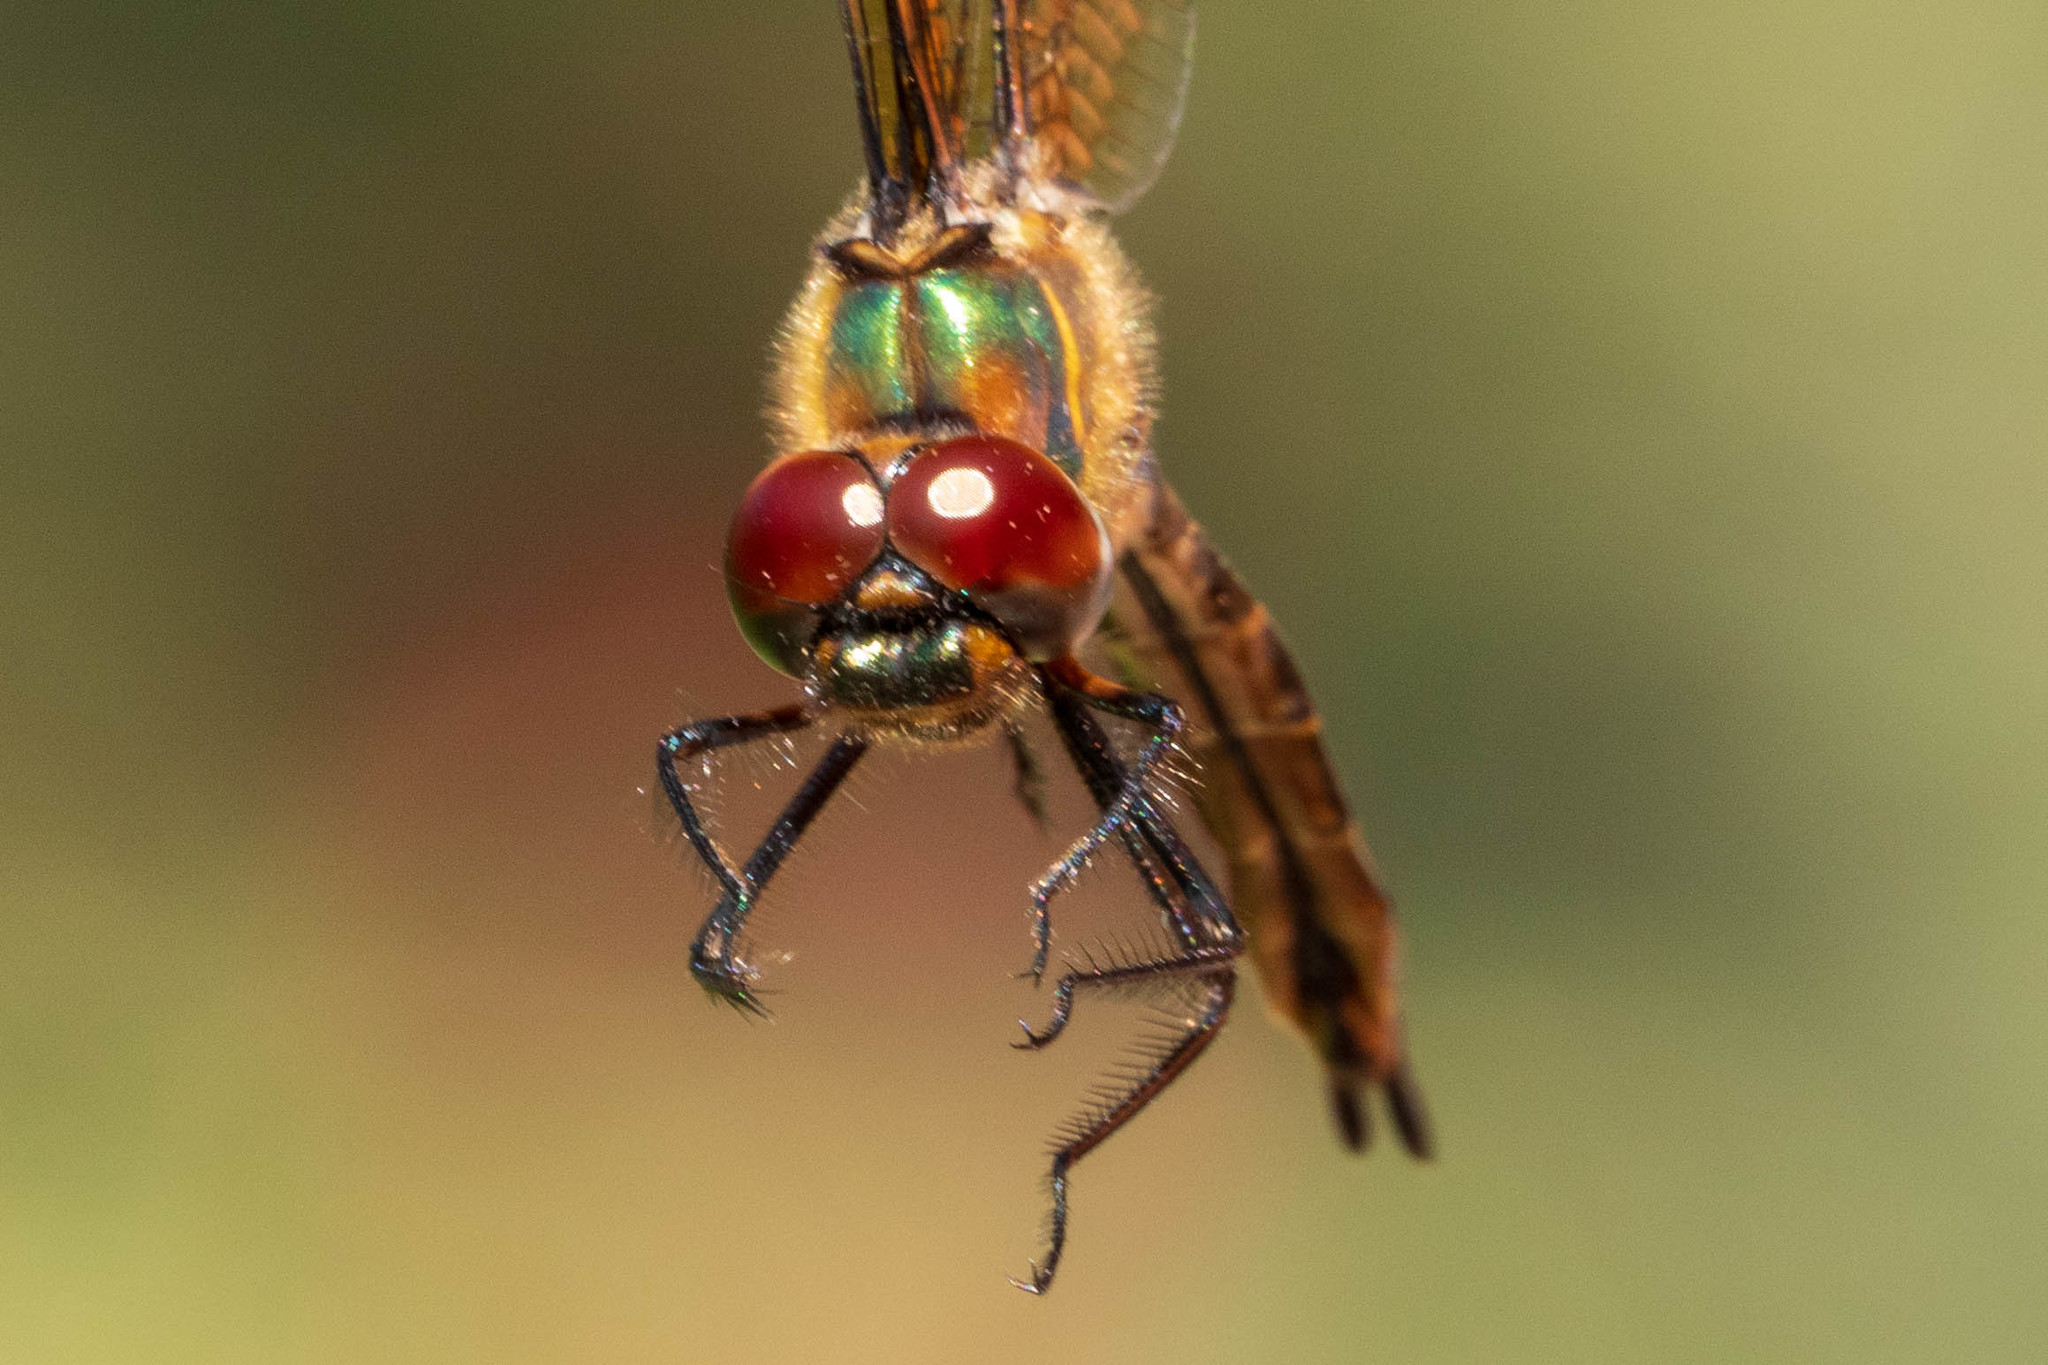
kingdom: Animalia
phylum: Arthropoda
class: Insecta
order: Odonata
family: Corduliidae
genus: Somatochlora
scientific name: Somatochlora walshii
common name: Brush-tipped emerald
